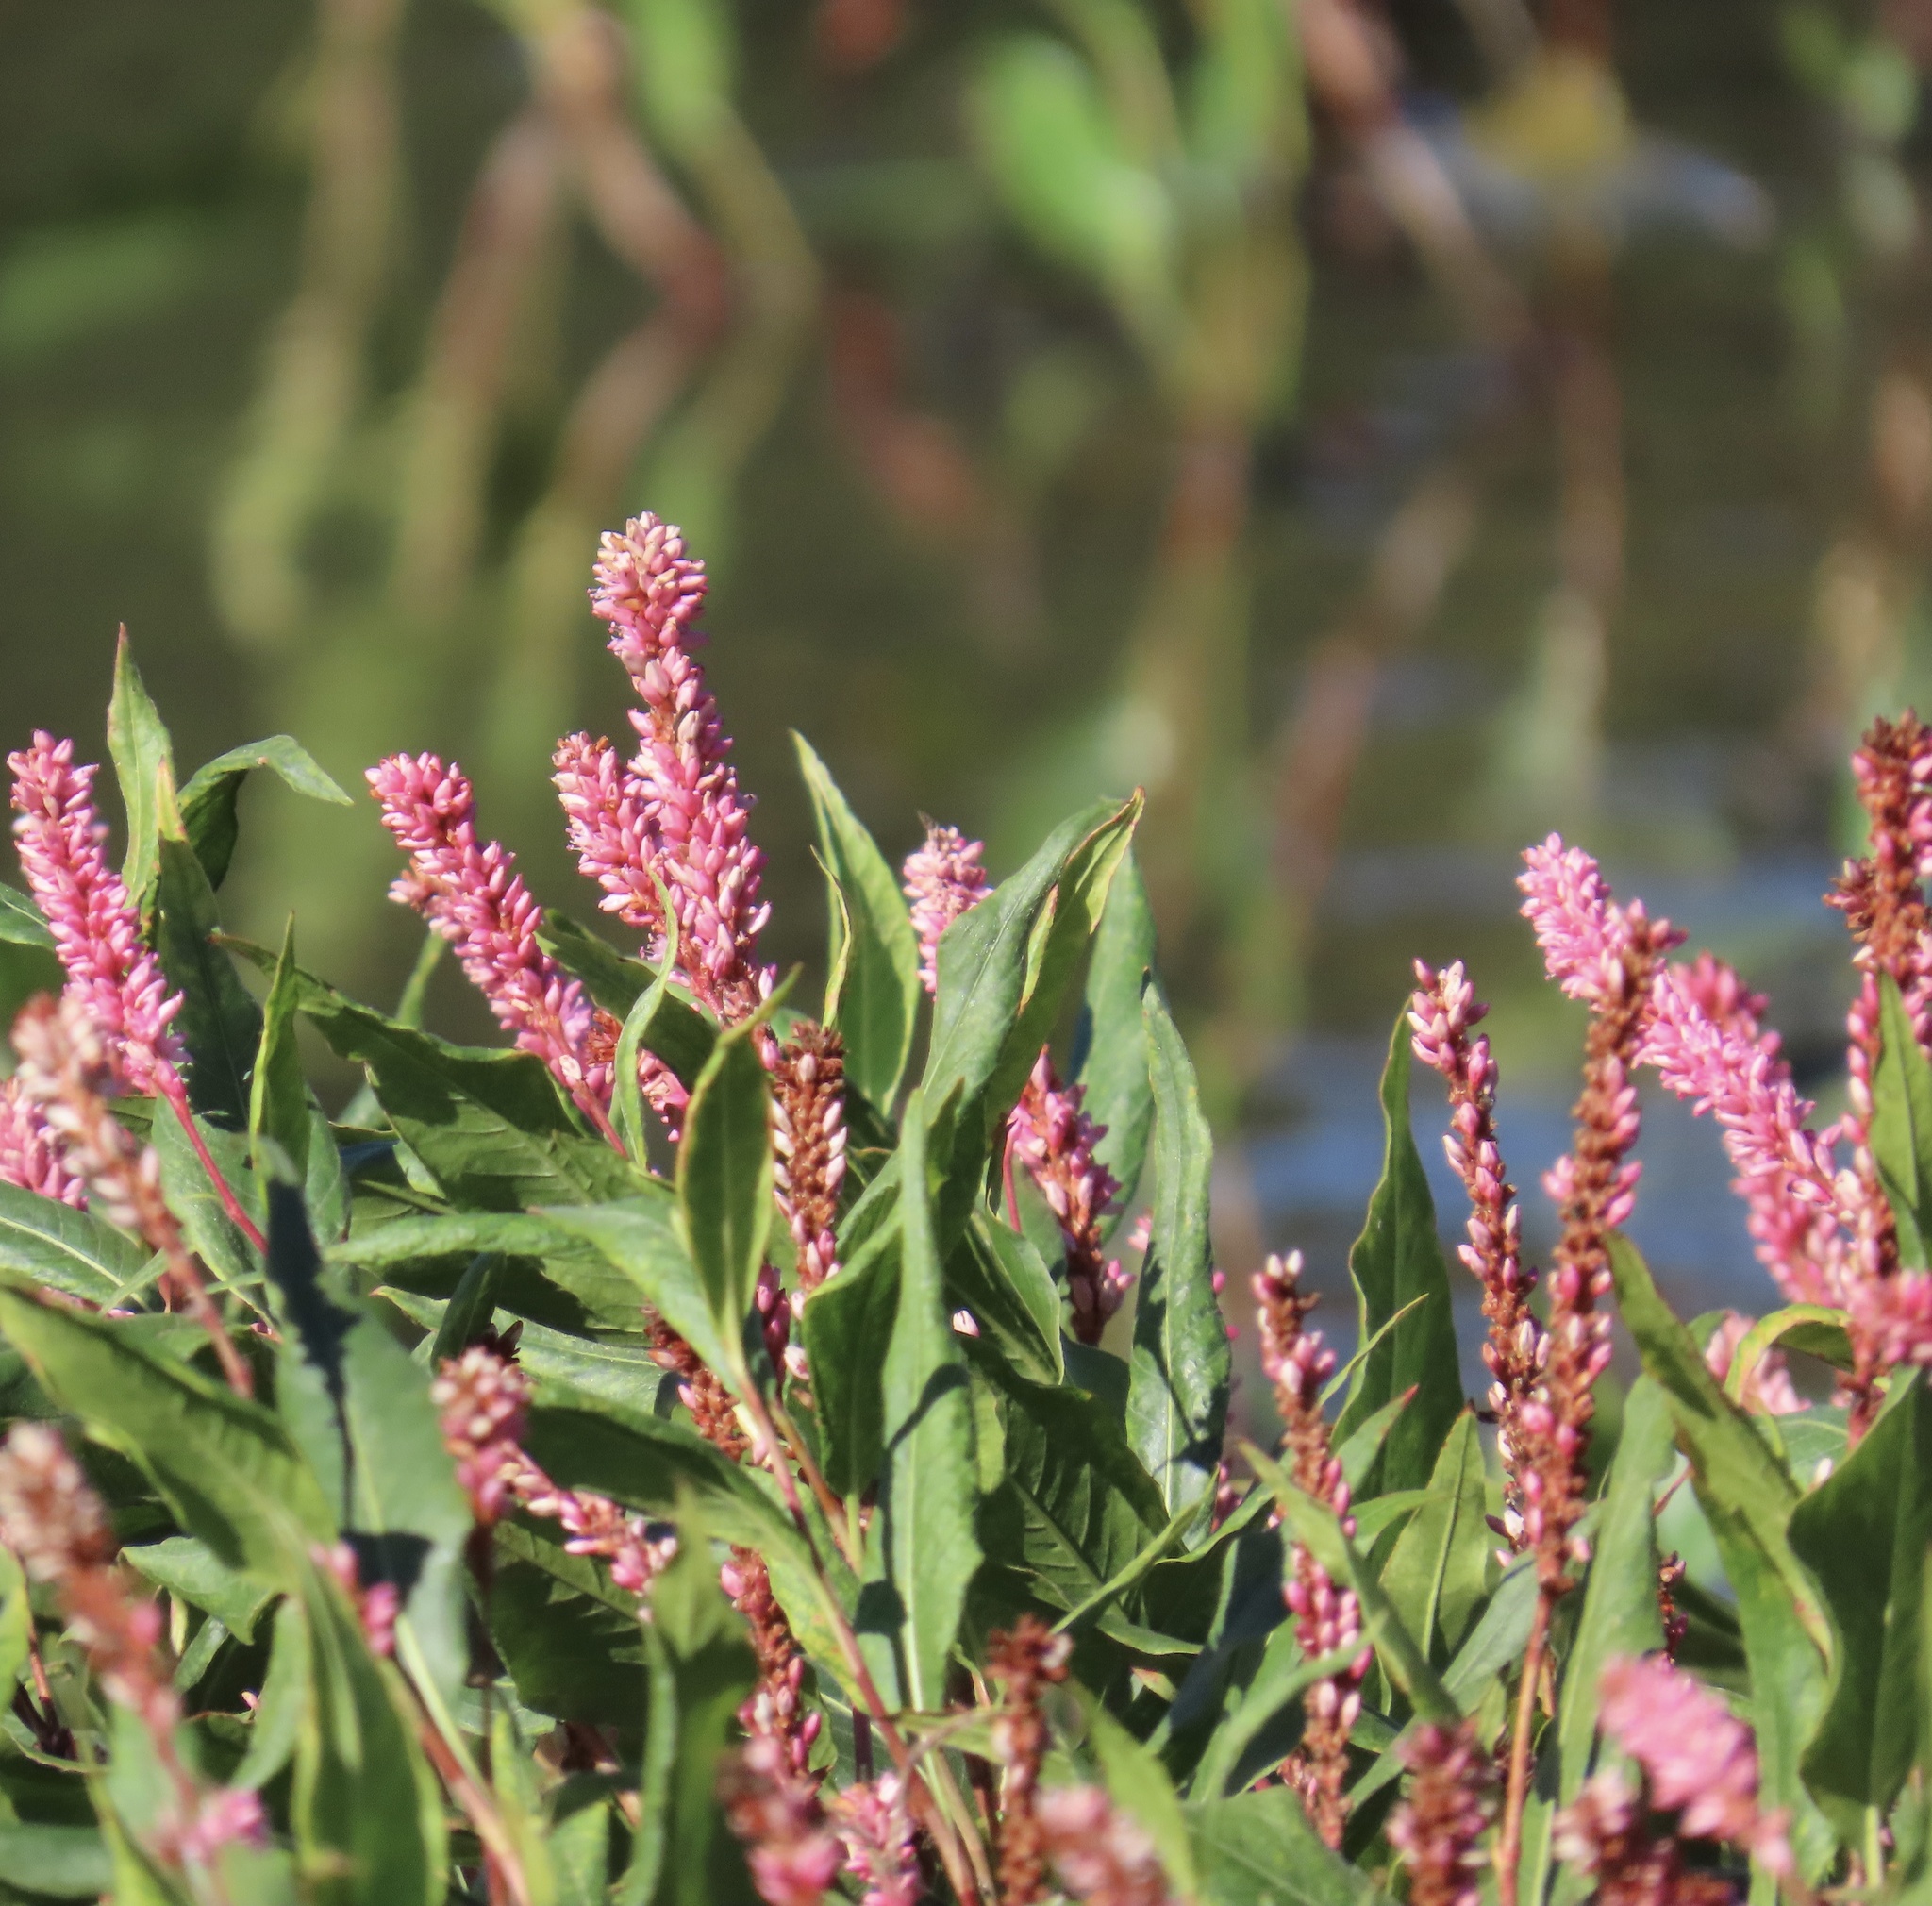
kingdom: Plantae
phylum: Tracheophyta
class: Magnoliopsida
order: Caryophyllales
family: Polygonaceae
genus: Persicaria
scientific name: Persicaria amphibia
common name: Amphibious bistort
